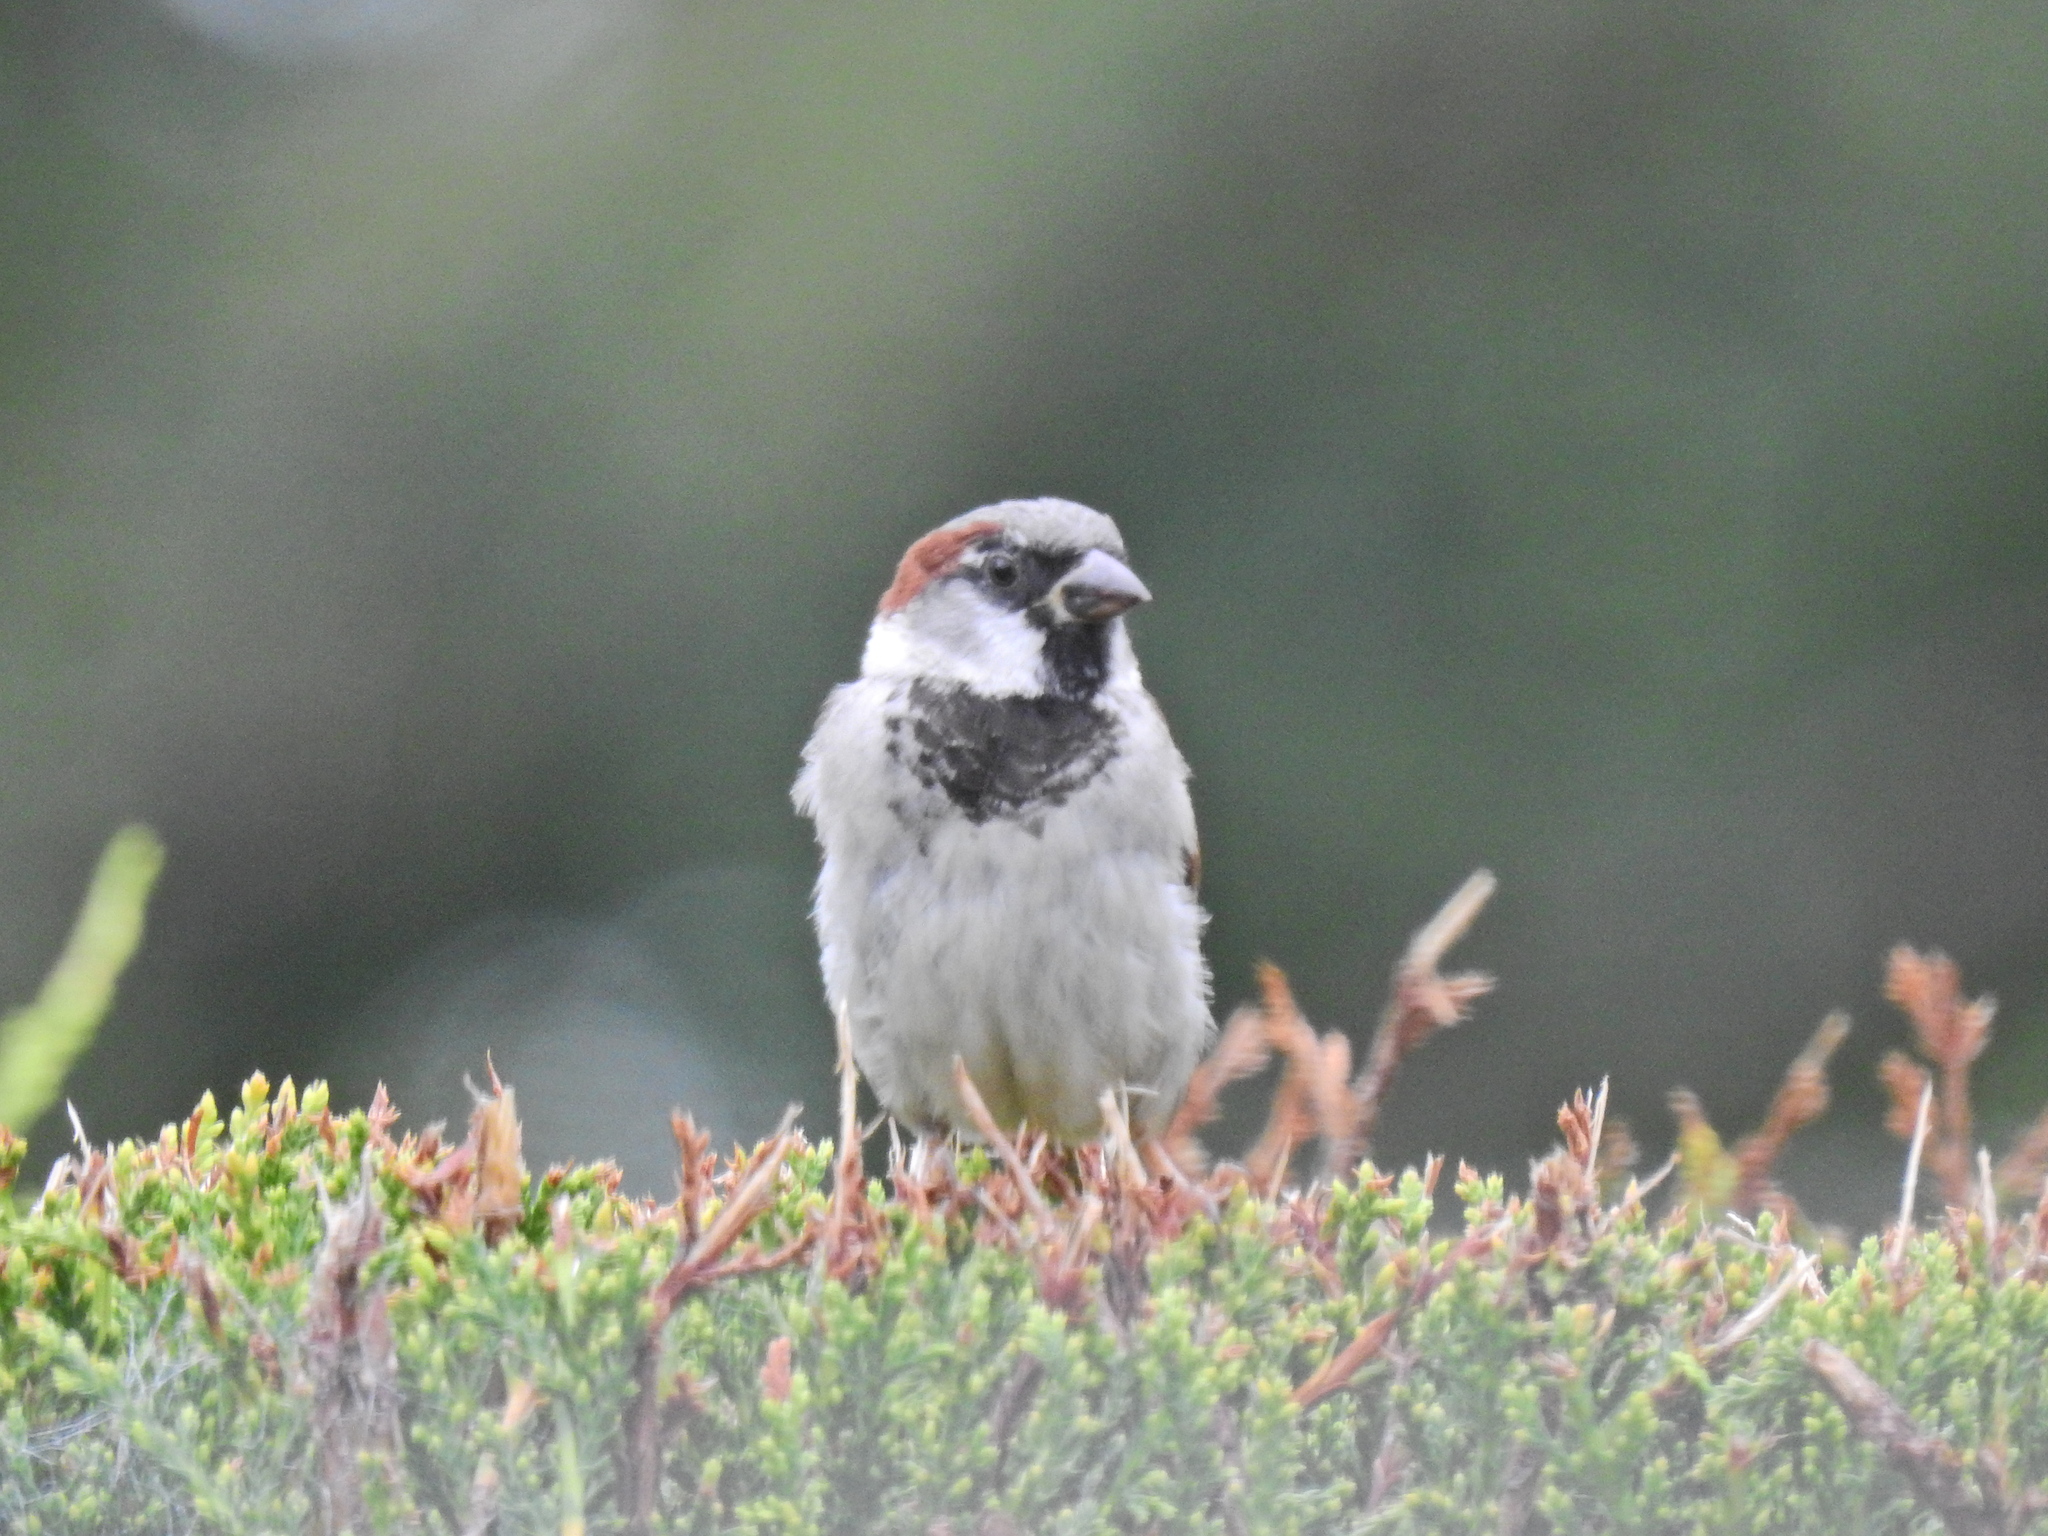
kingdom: Animalia
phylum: Chordata
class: Aves
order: Passeriformes
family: Passeridae
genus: Passer
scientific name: Passer domesticus
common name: House sparrow
